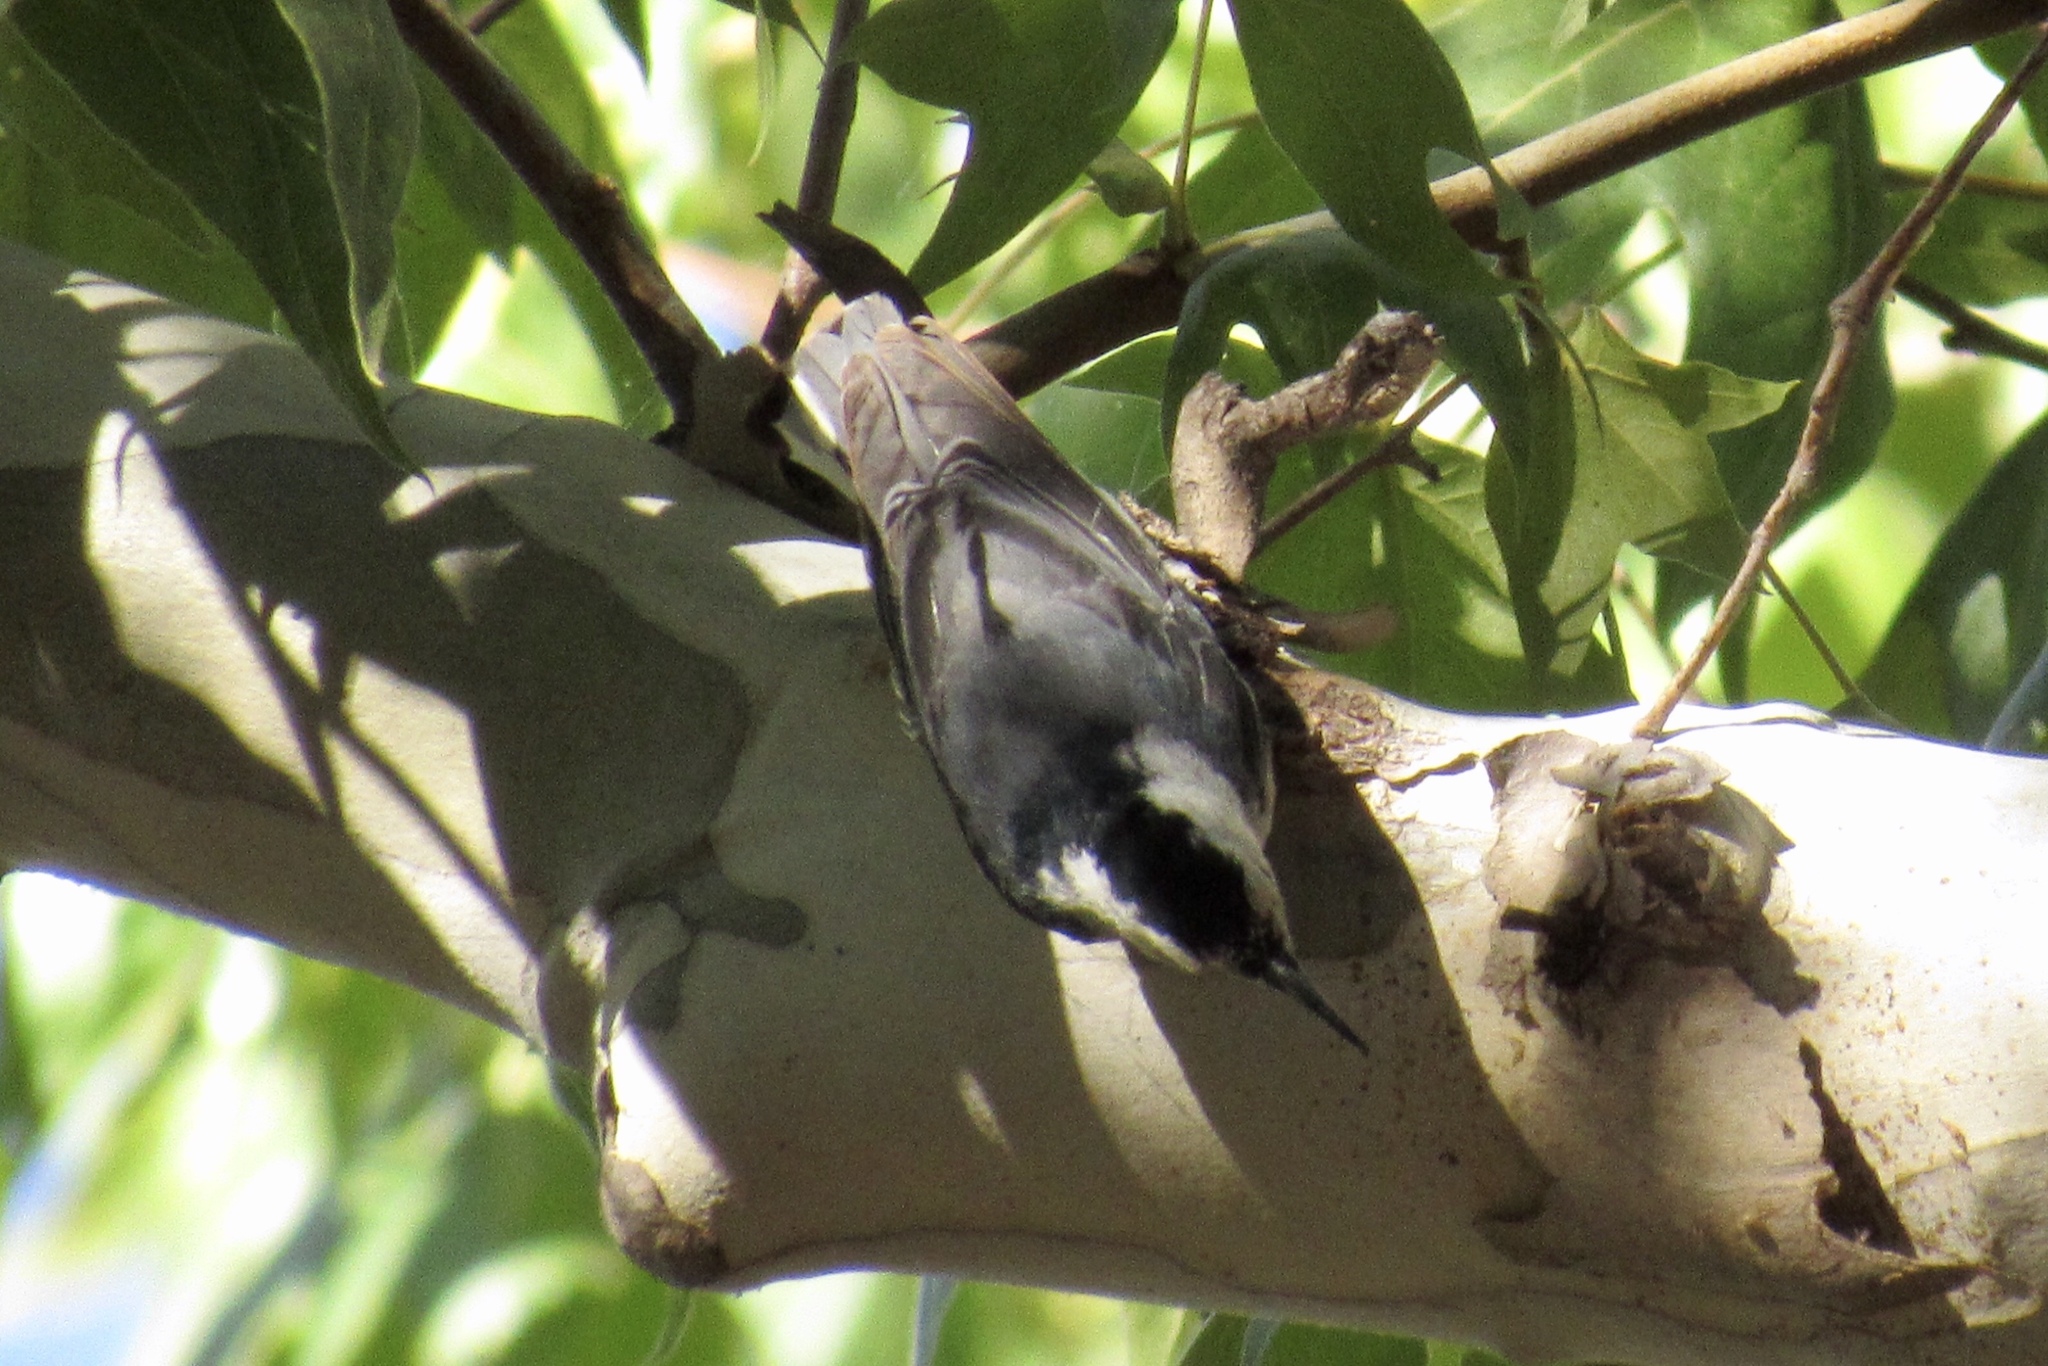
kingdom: Animalia
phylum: Chordata
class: Aves
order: Passeriformes
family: Sittidae
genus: Sitta
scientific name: Sitta carolinensis
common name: White-breasted nuthatch
